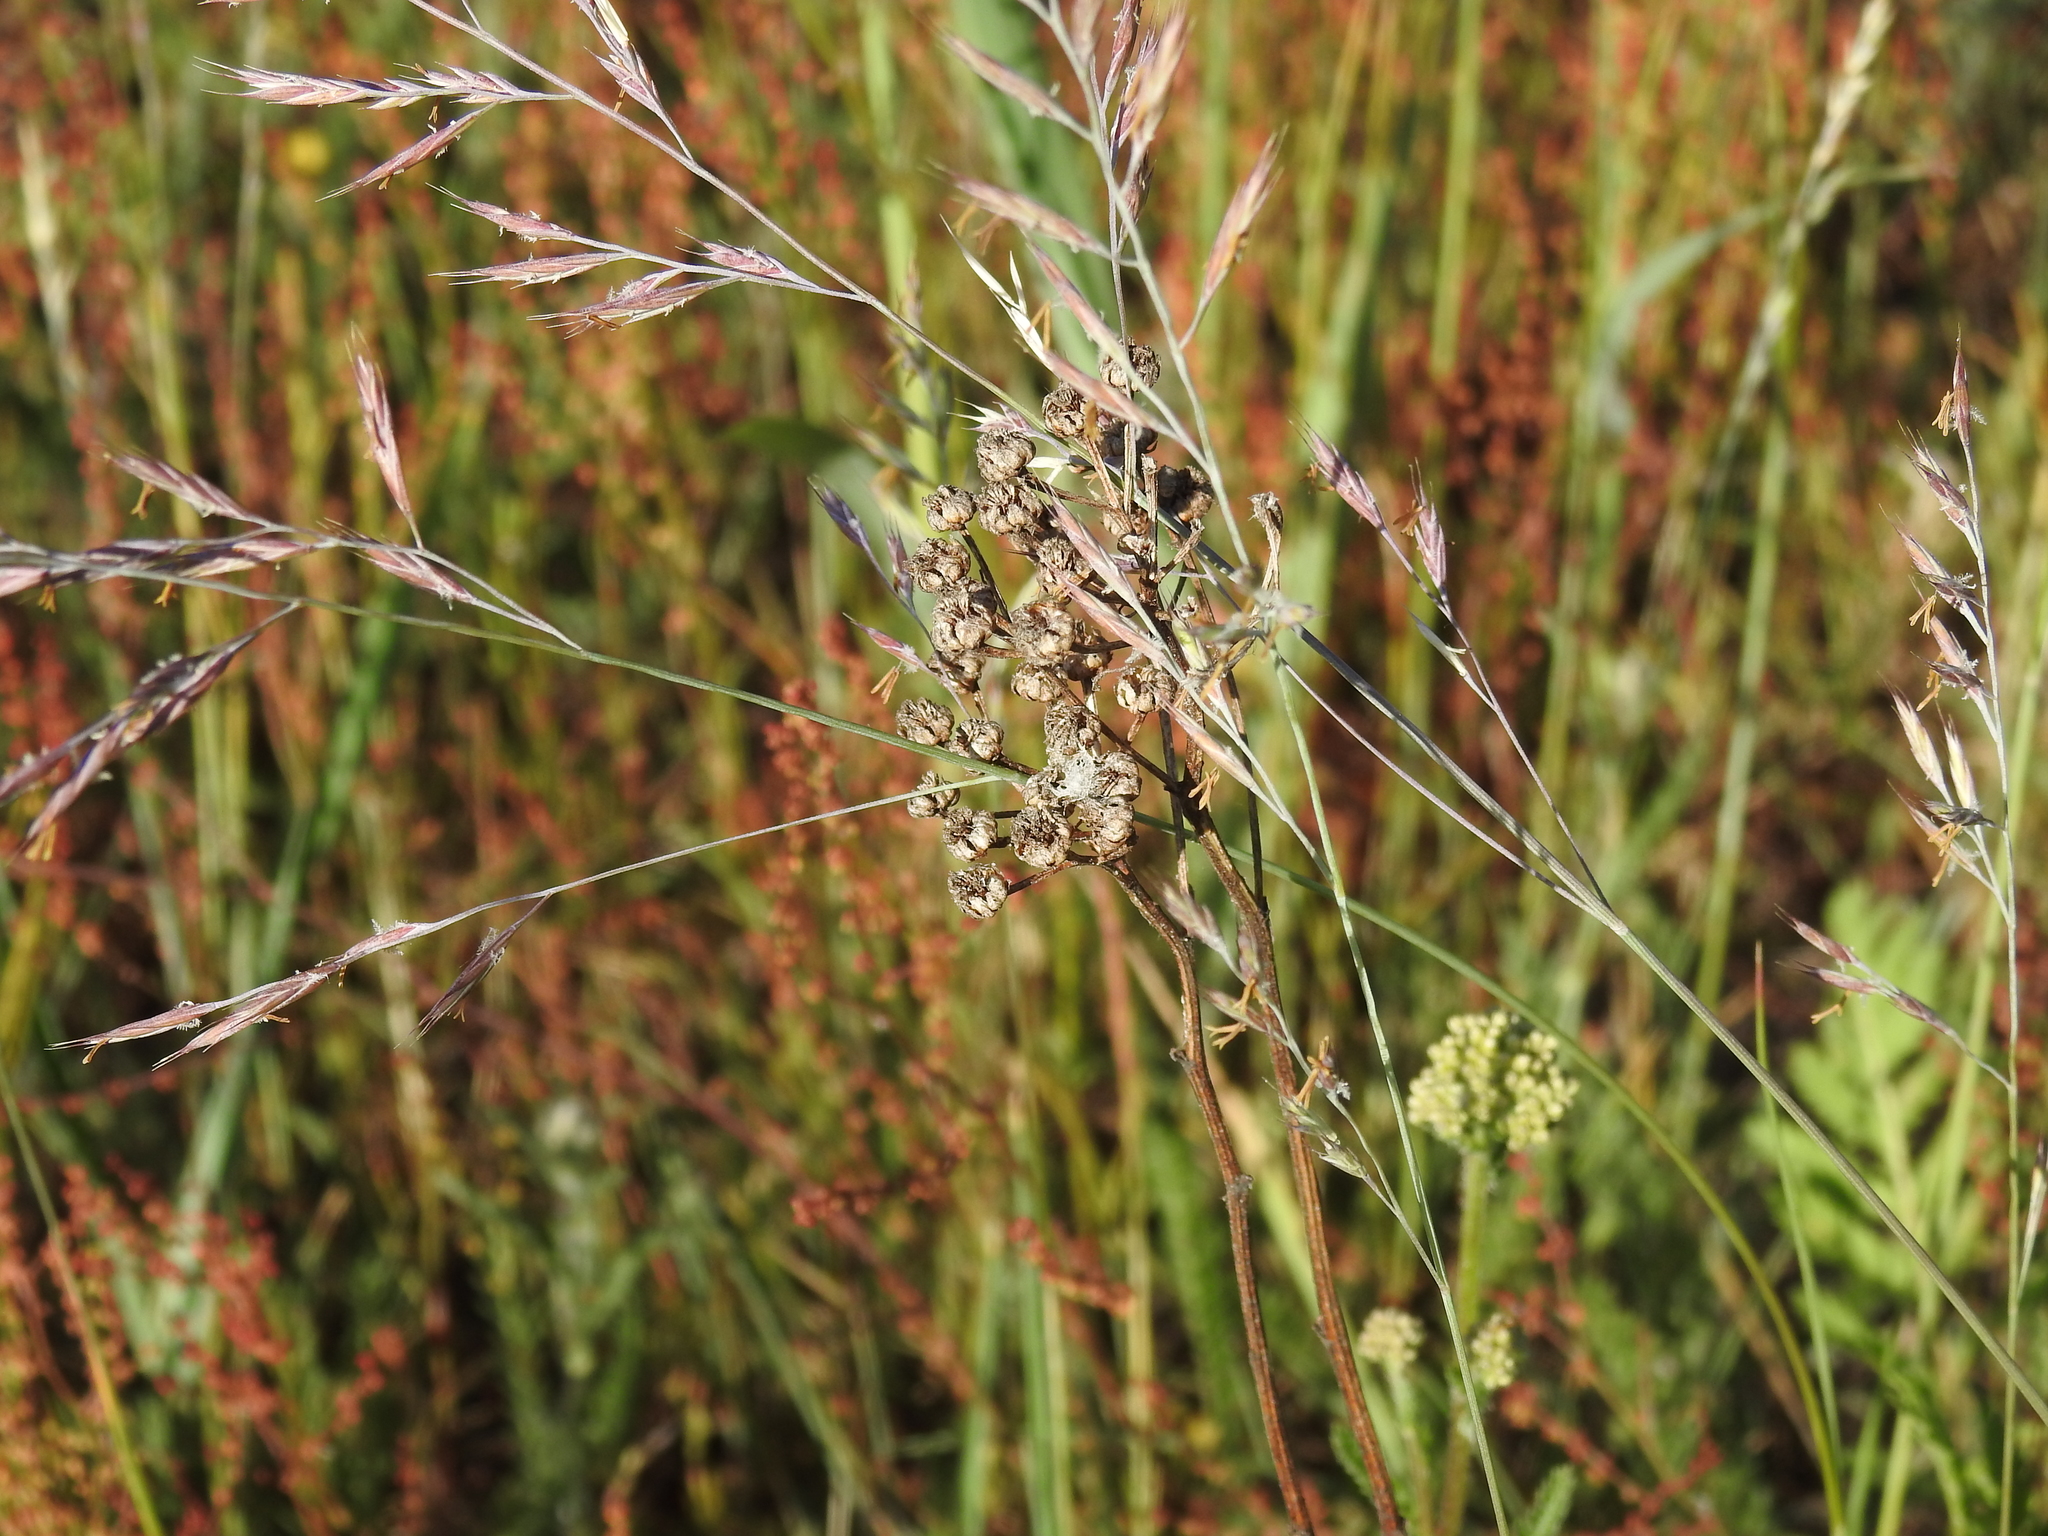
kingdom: Plantae
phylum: Tracheophyta
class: Magnoliopsida
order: Asterales
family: Asteraceae
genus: Tanacetum
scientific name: Tanacetum vulgare
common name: Common tansy
